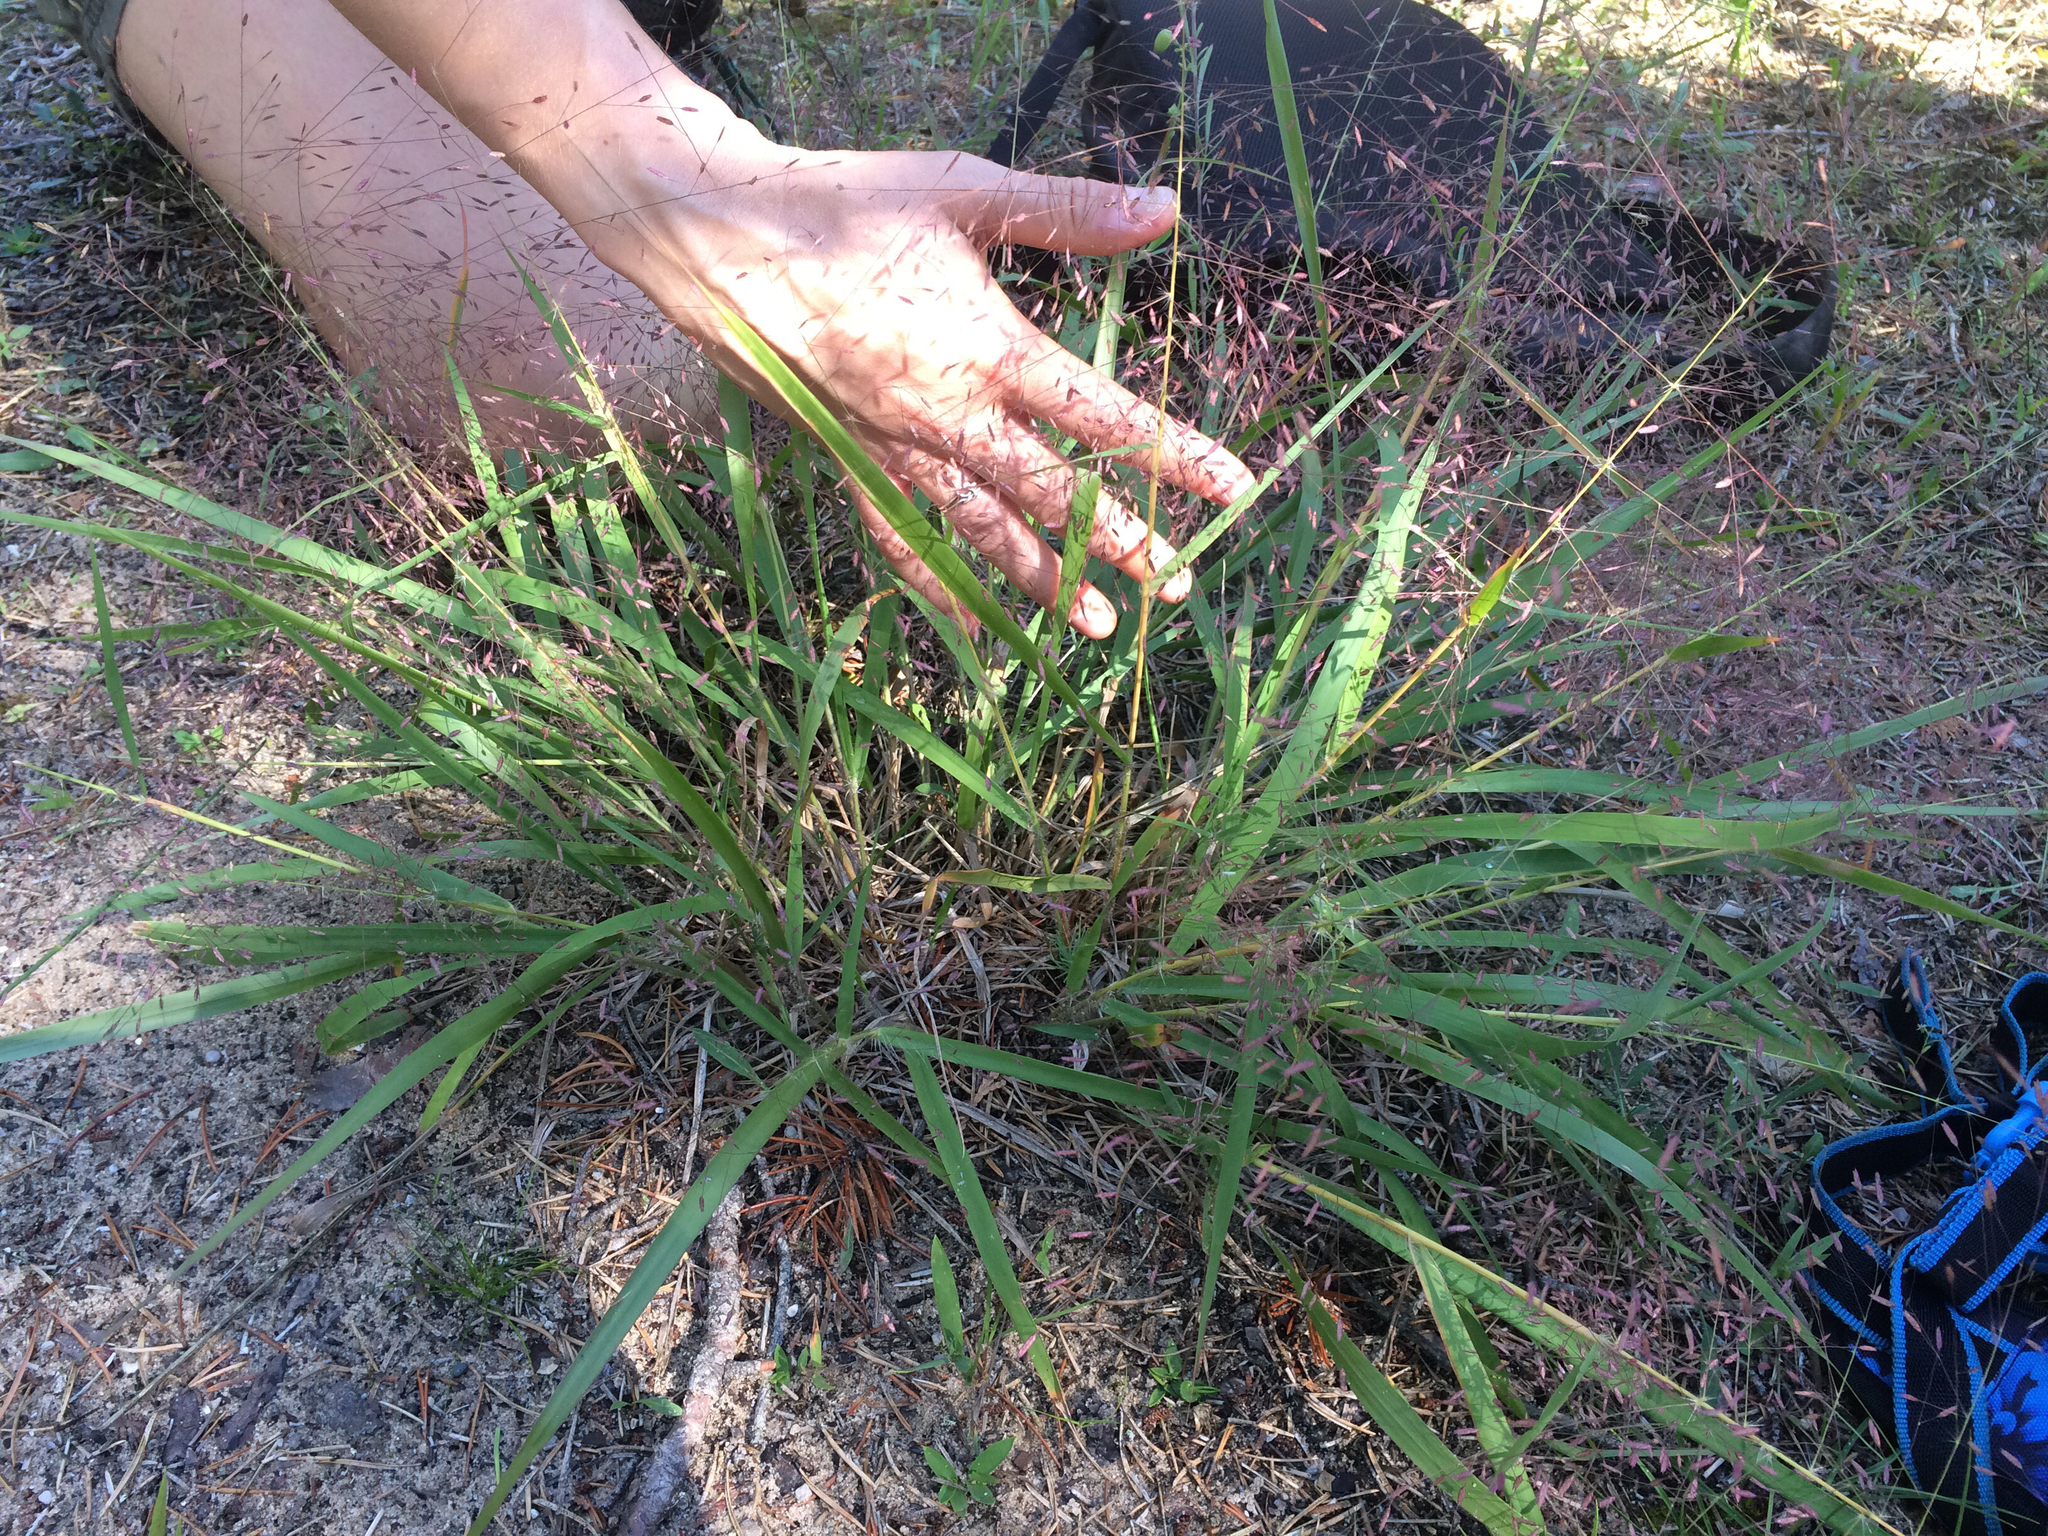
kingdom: Plantae
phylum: Tracheophyta
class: Liliopsida
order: Poales
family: Poaceae
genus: Eragrostis
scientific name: Eragrostis spectabilis
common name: Petticoat-climber
